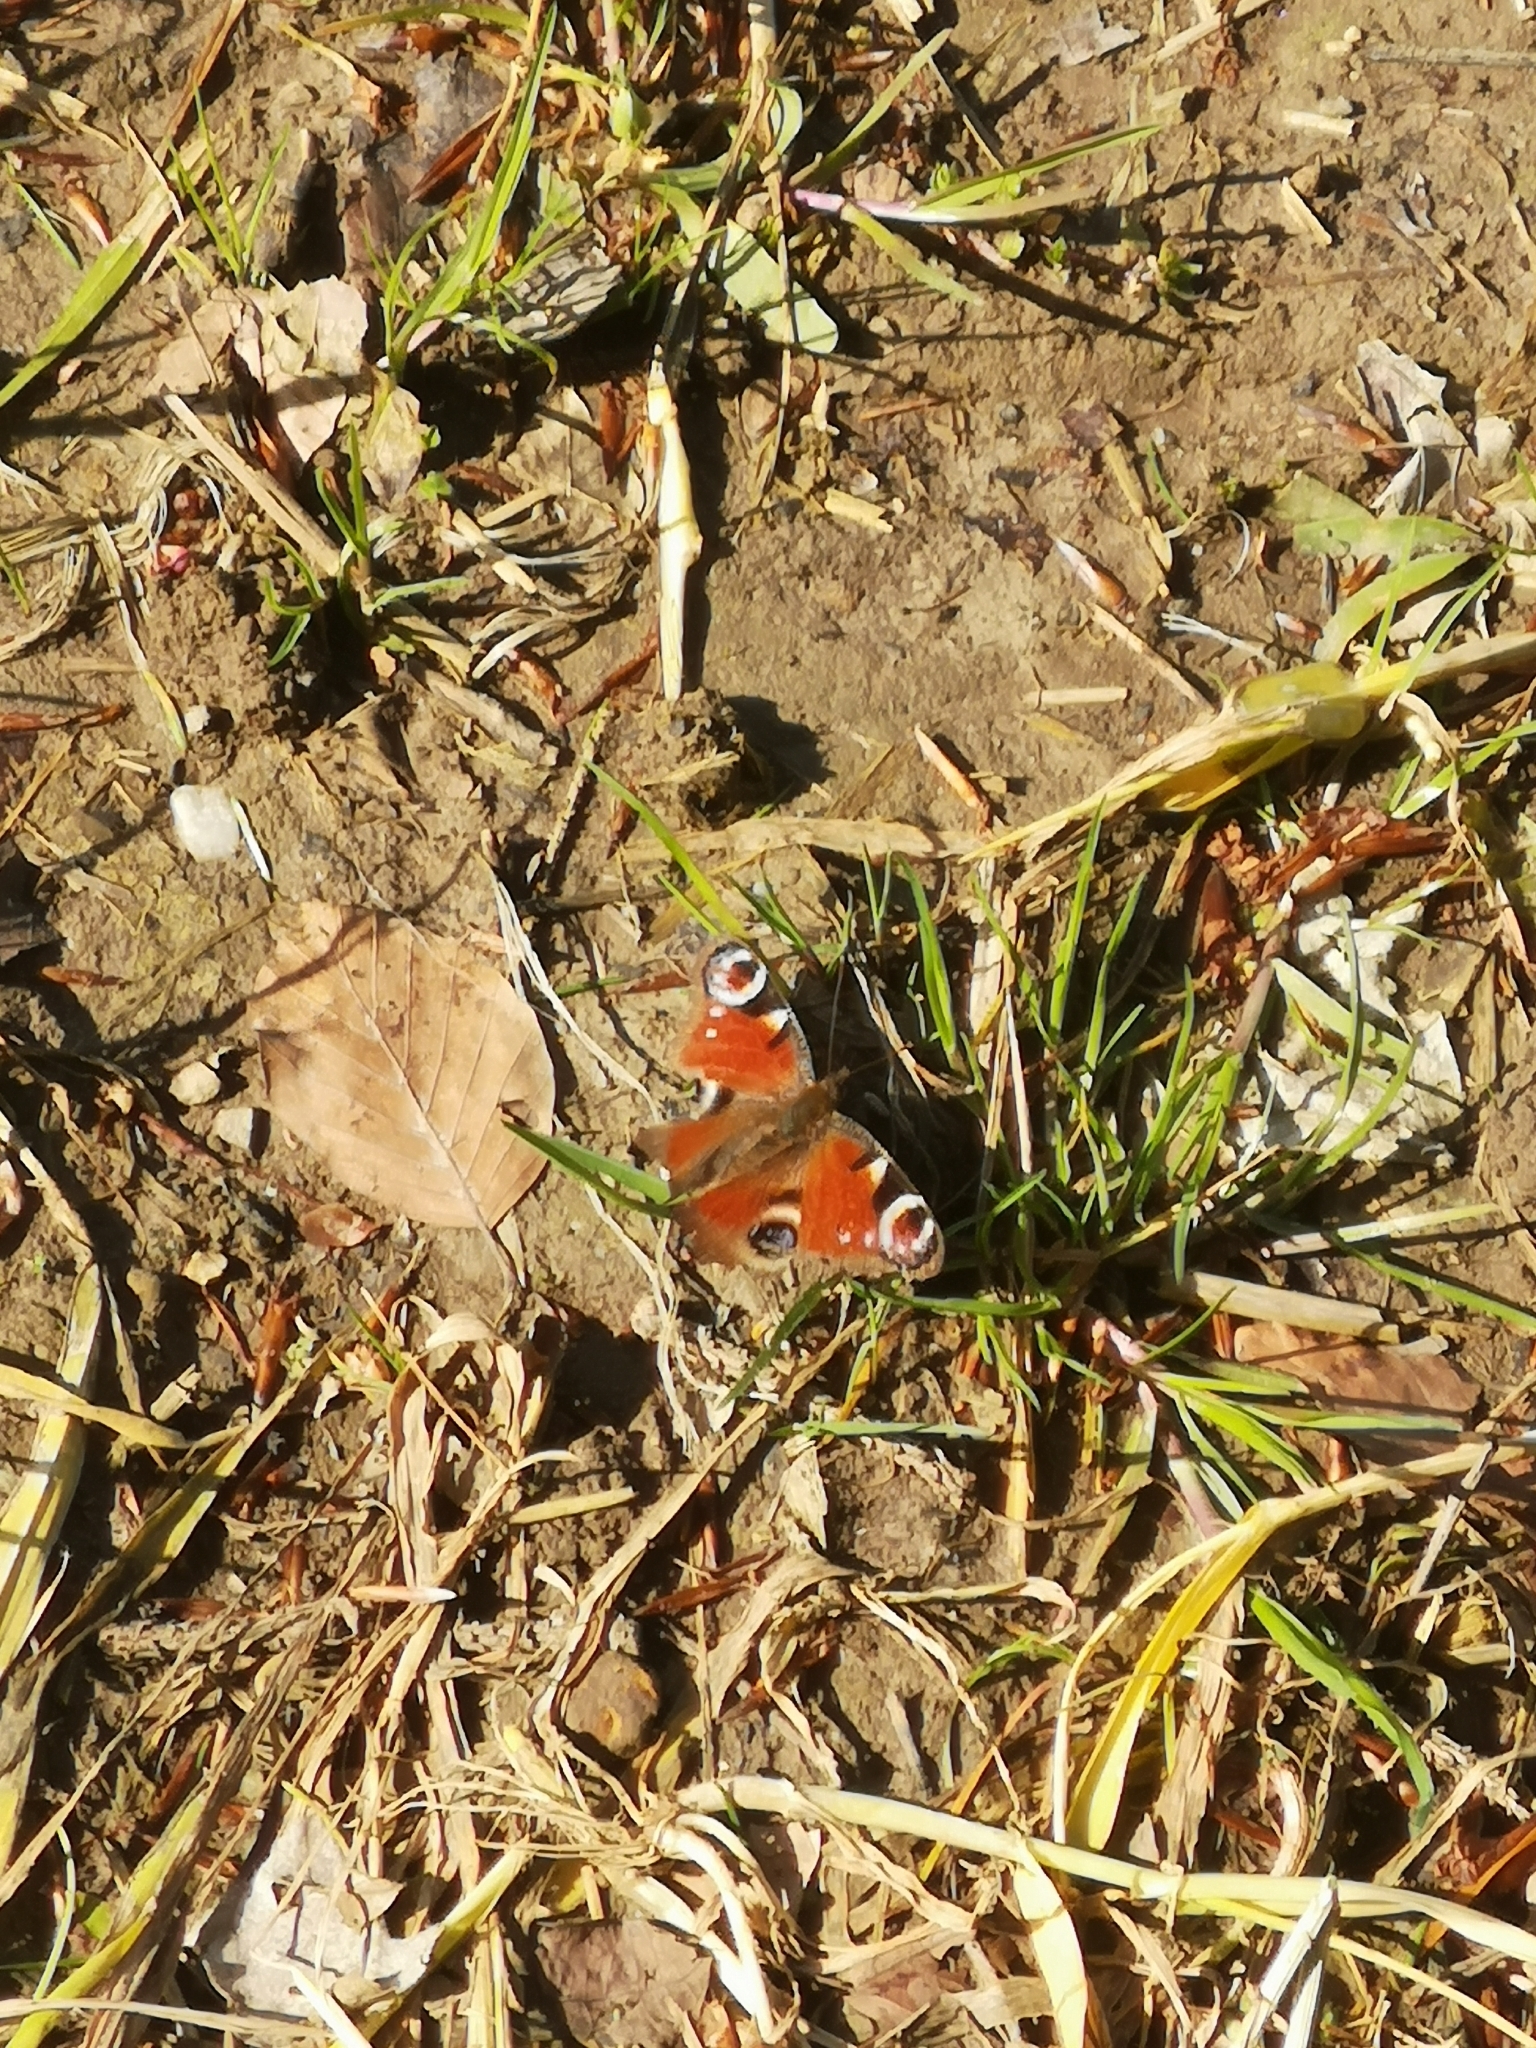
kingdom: Animalia
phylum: Arthropoda
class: Insecta
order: Lepidoptera
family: Nymphalidae
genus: Aglais
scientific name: Aglais io
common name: Peacock
